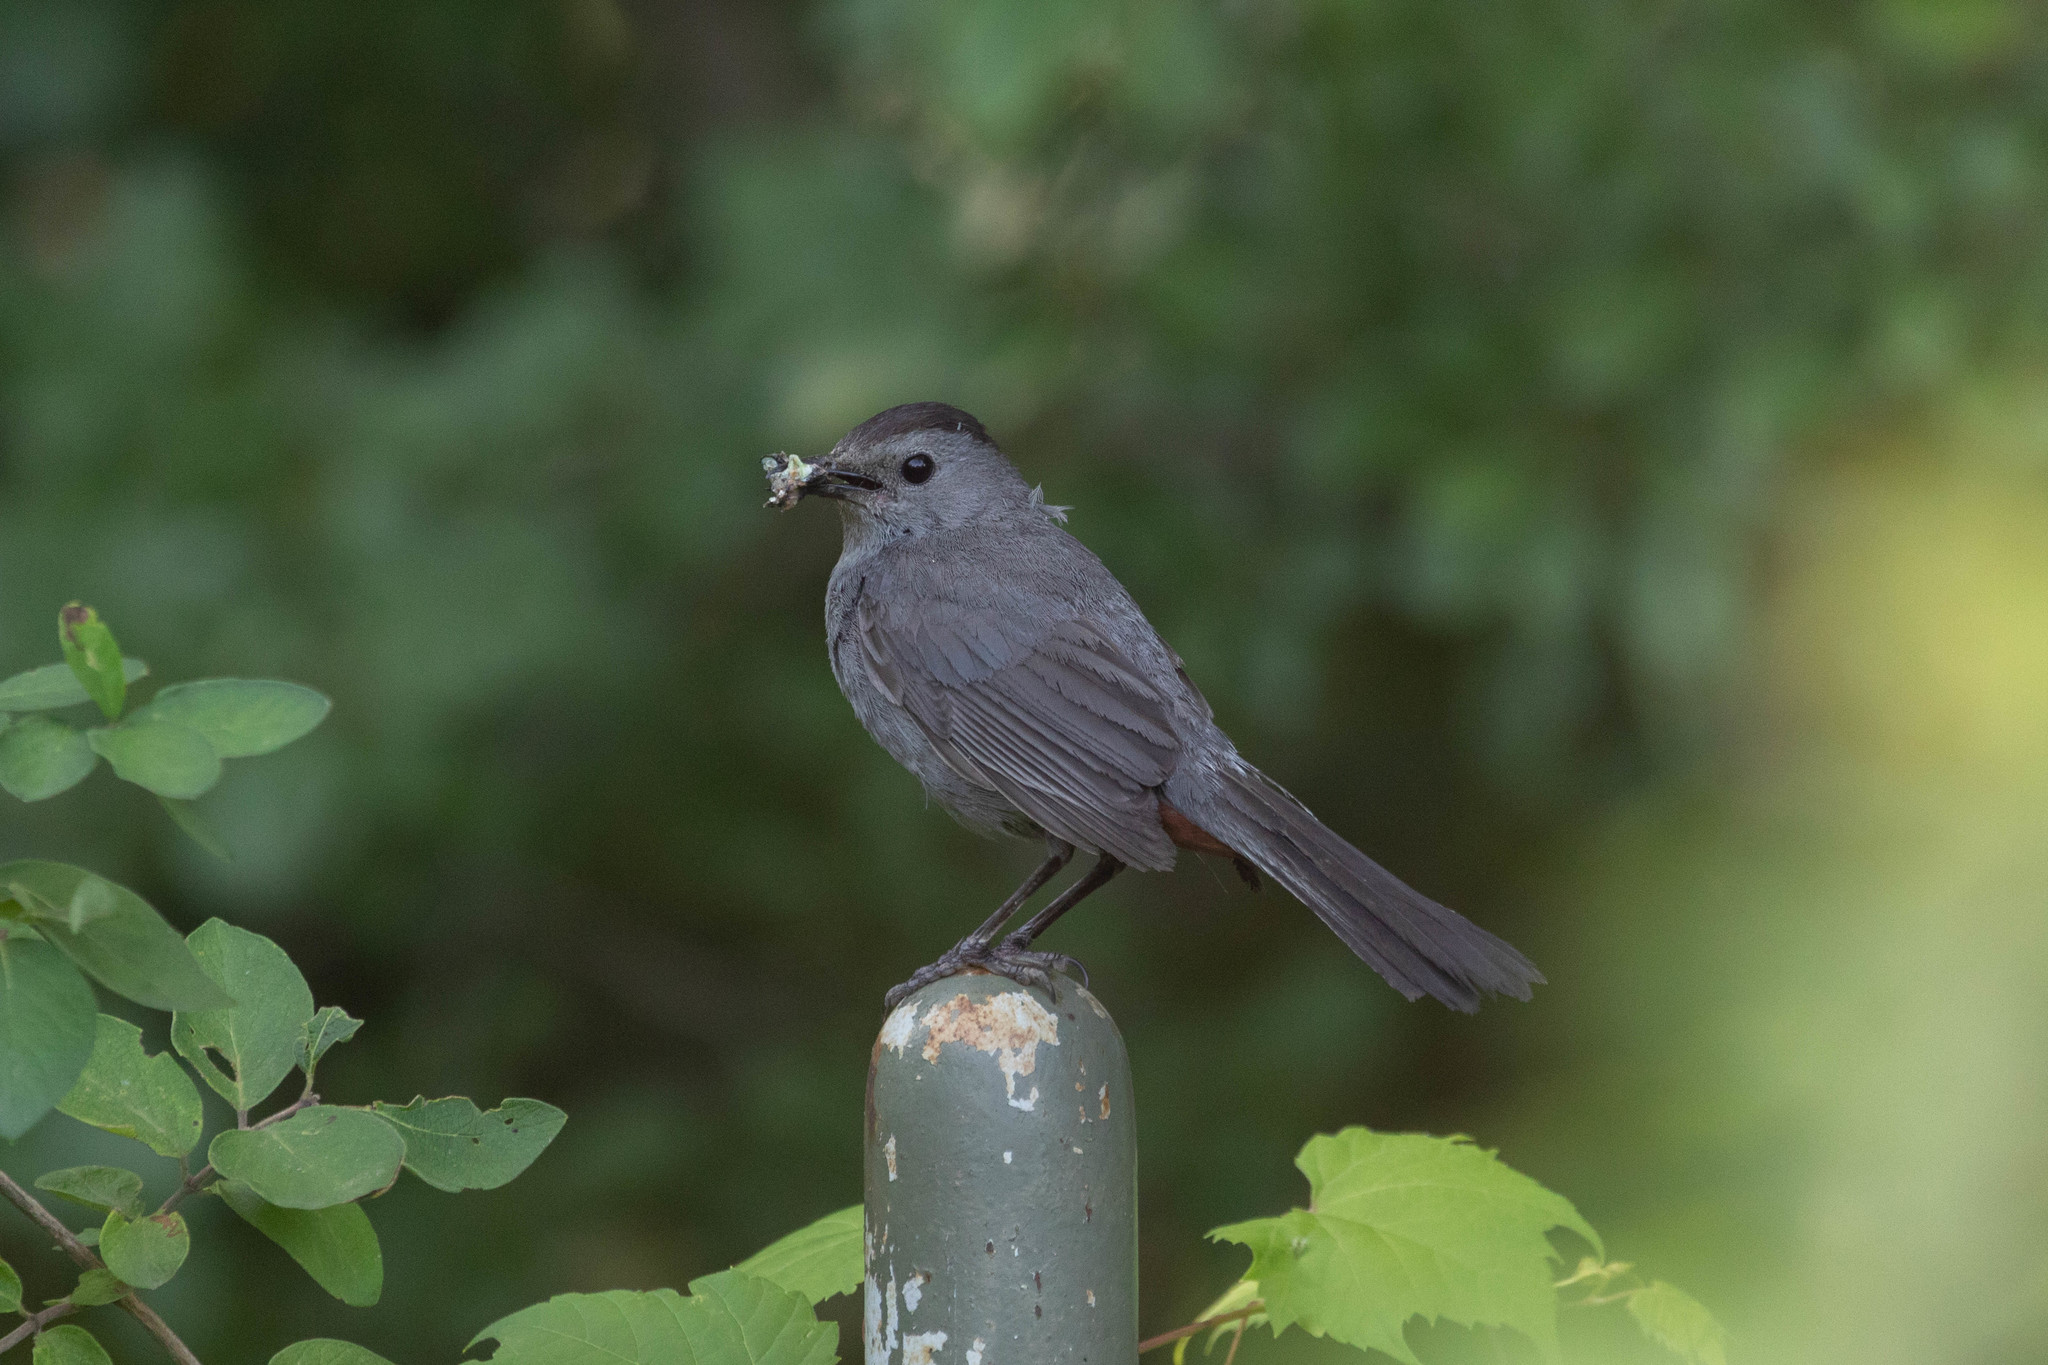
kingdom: Animalia
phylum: Chordata
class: Aves
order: Passeriformes
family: Mimidae
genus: Dumetella
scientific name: Dumetella carolinensis
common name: Gray catbird
